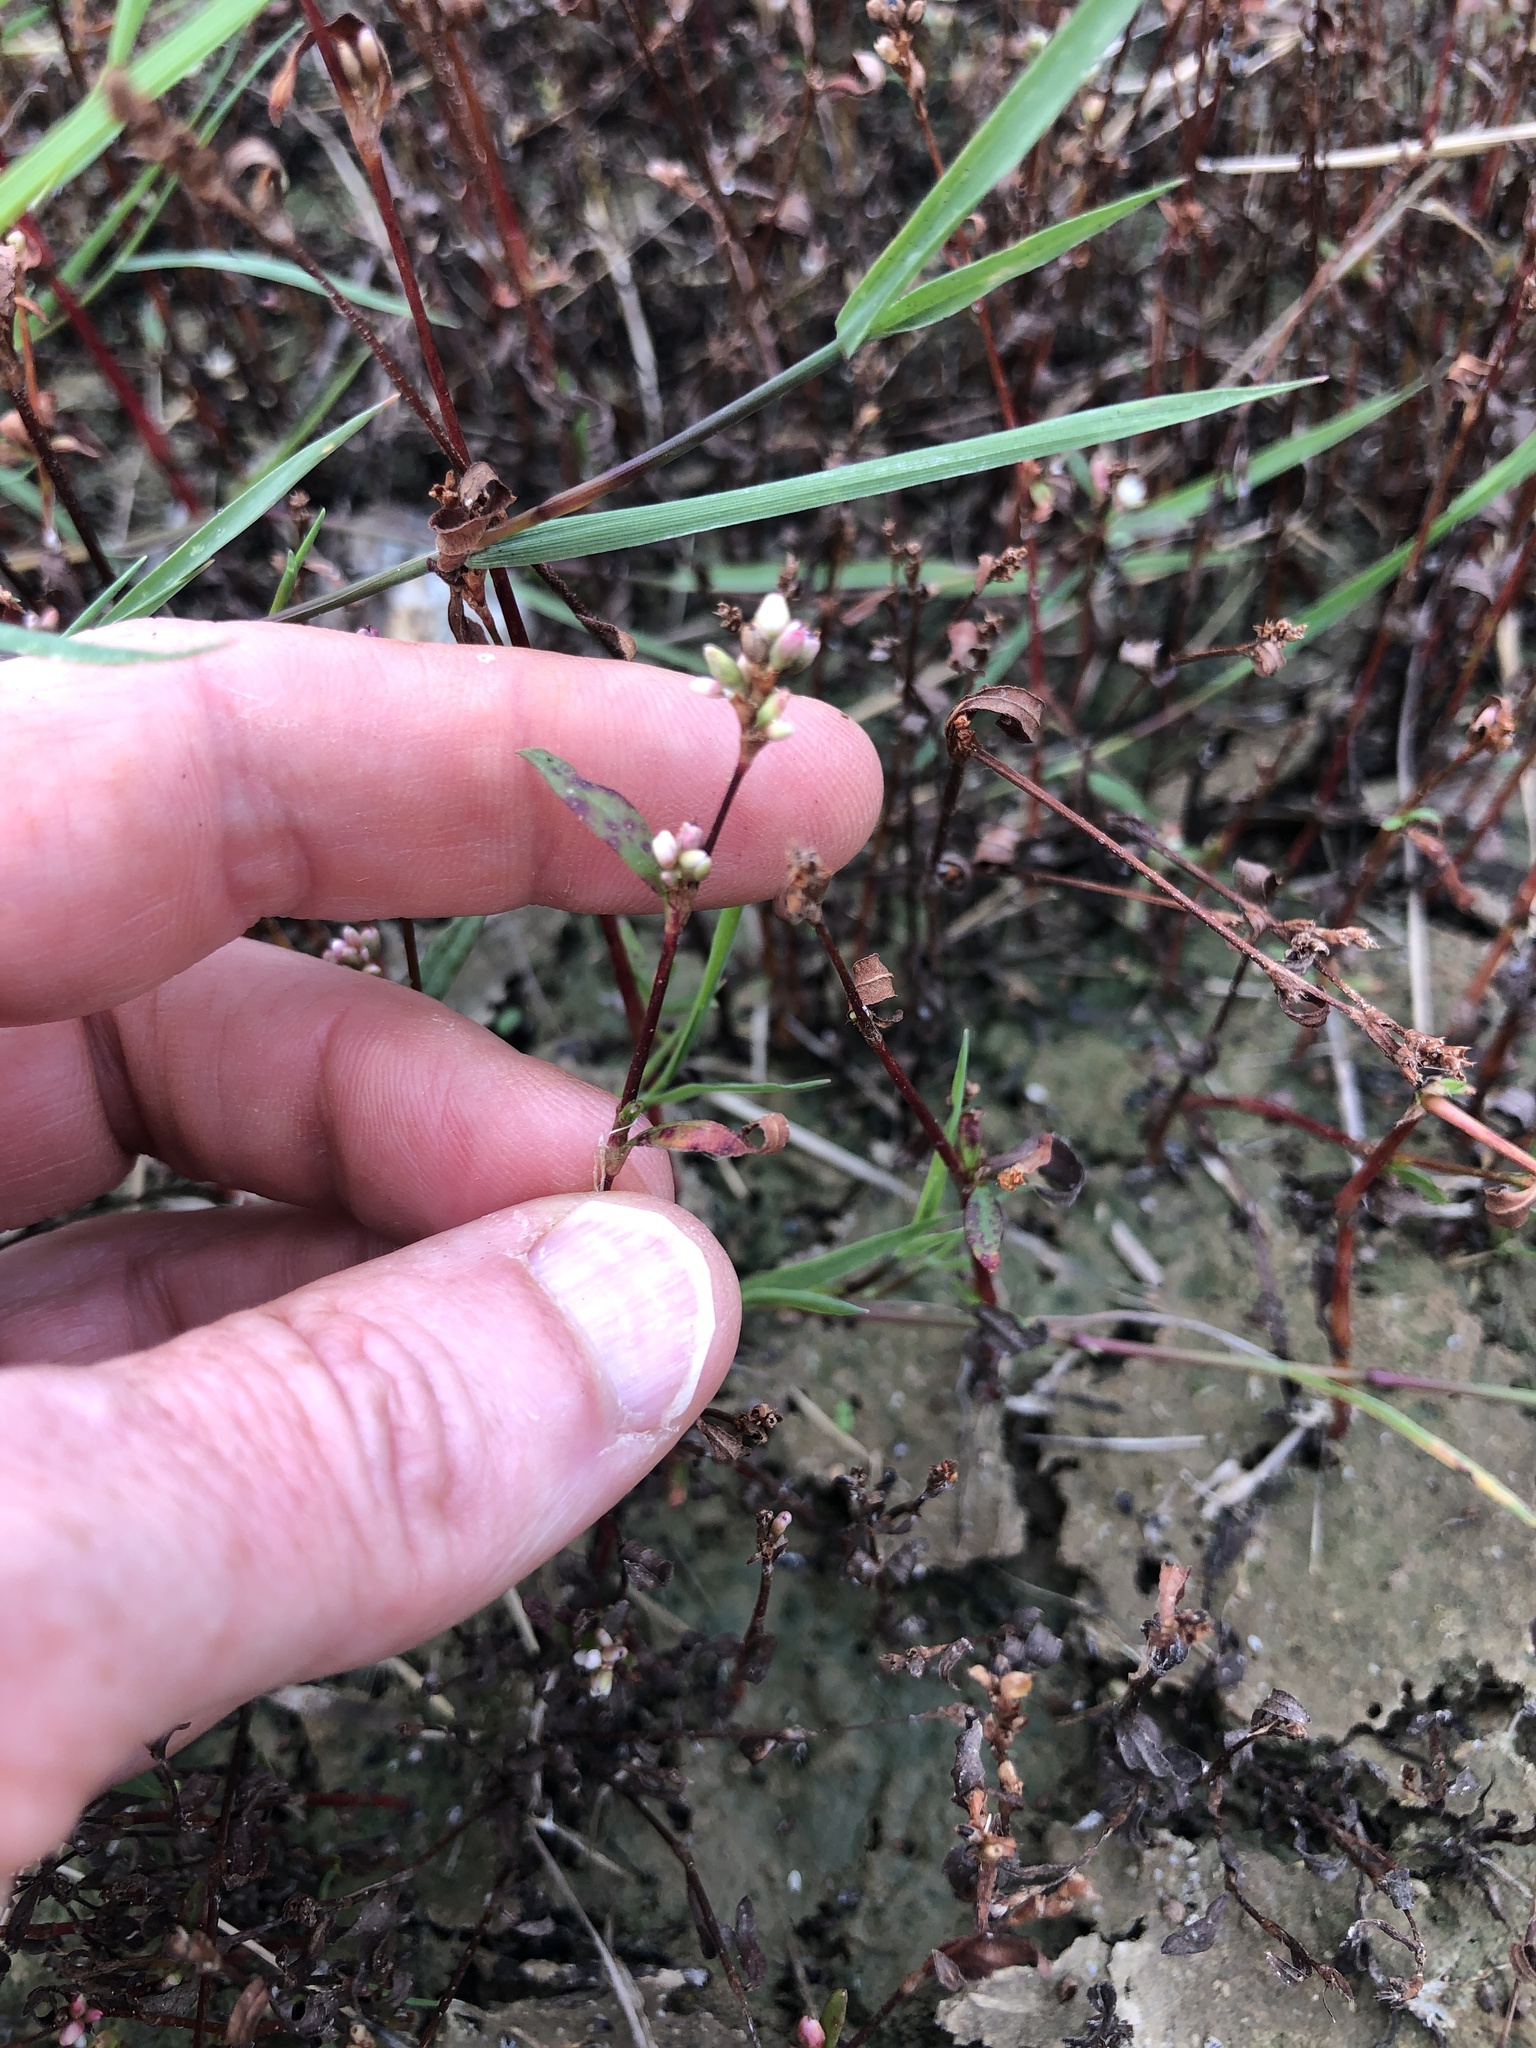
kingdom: Plantae
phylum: Tracheophyta
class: Magnoliopsida
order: Caryophyllales
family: Polygonaceae
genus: Persicaria
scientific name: Persicaria maculosa
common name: Redshank
